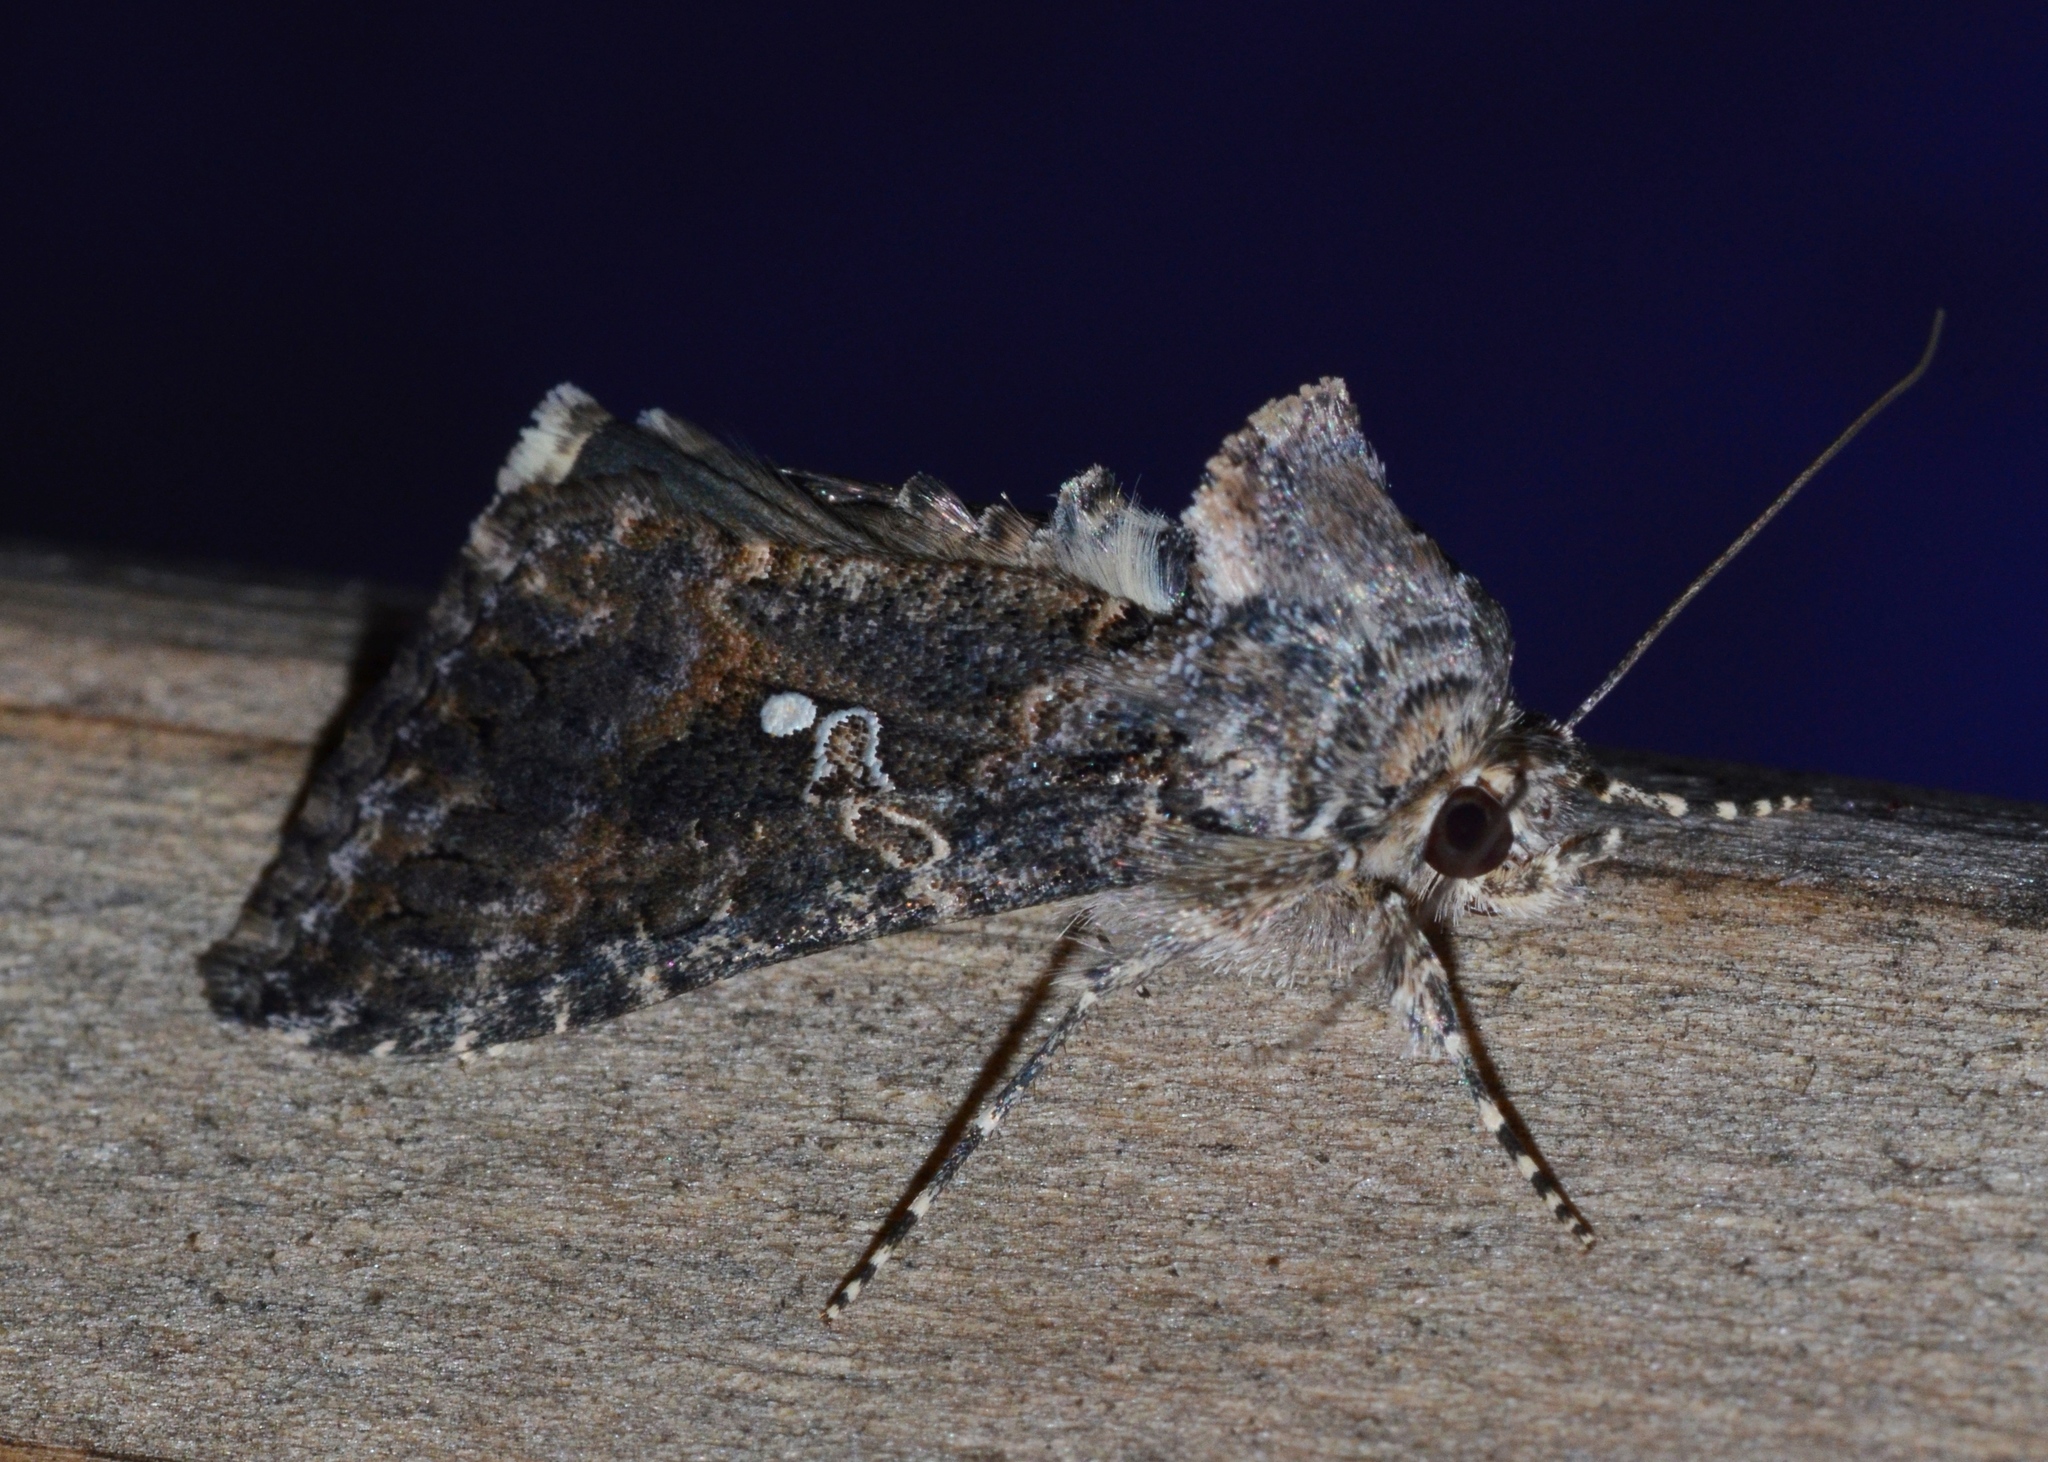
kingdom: Animalia
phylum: Arthropoda
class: Insecta
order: Lepidoptera
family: Noctuidae
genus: Trichoplusia
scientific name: Trichoplusia ni
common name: Ni moth
